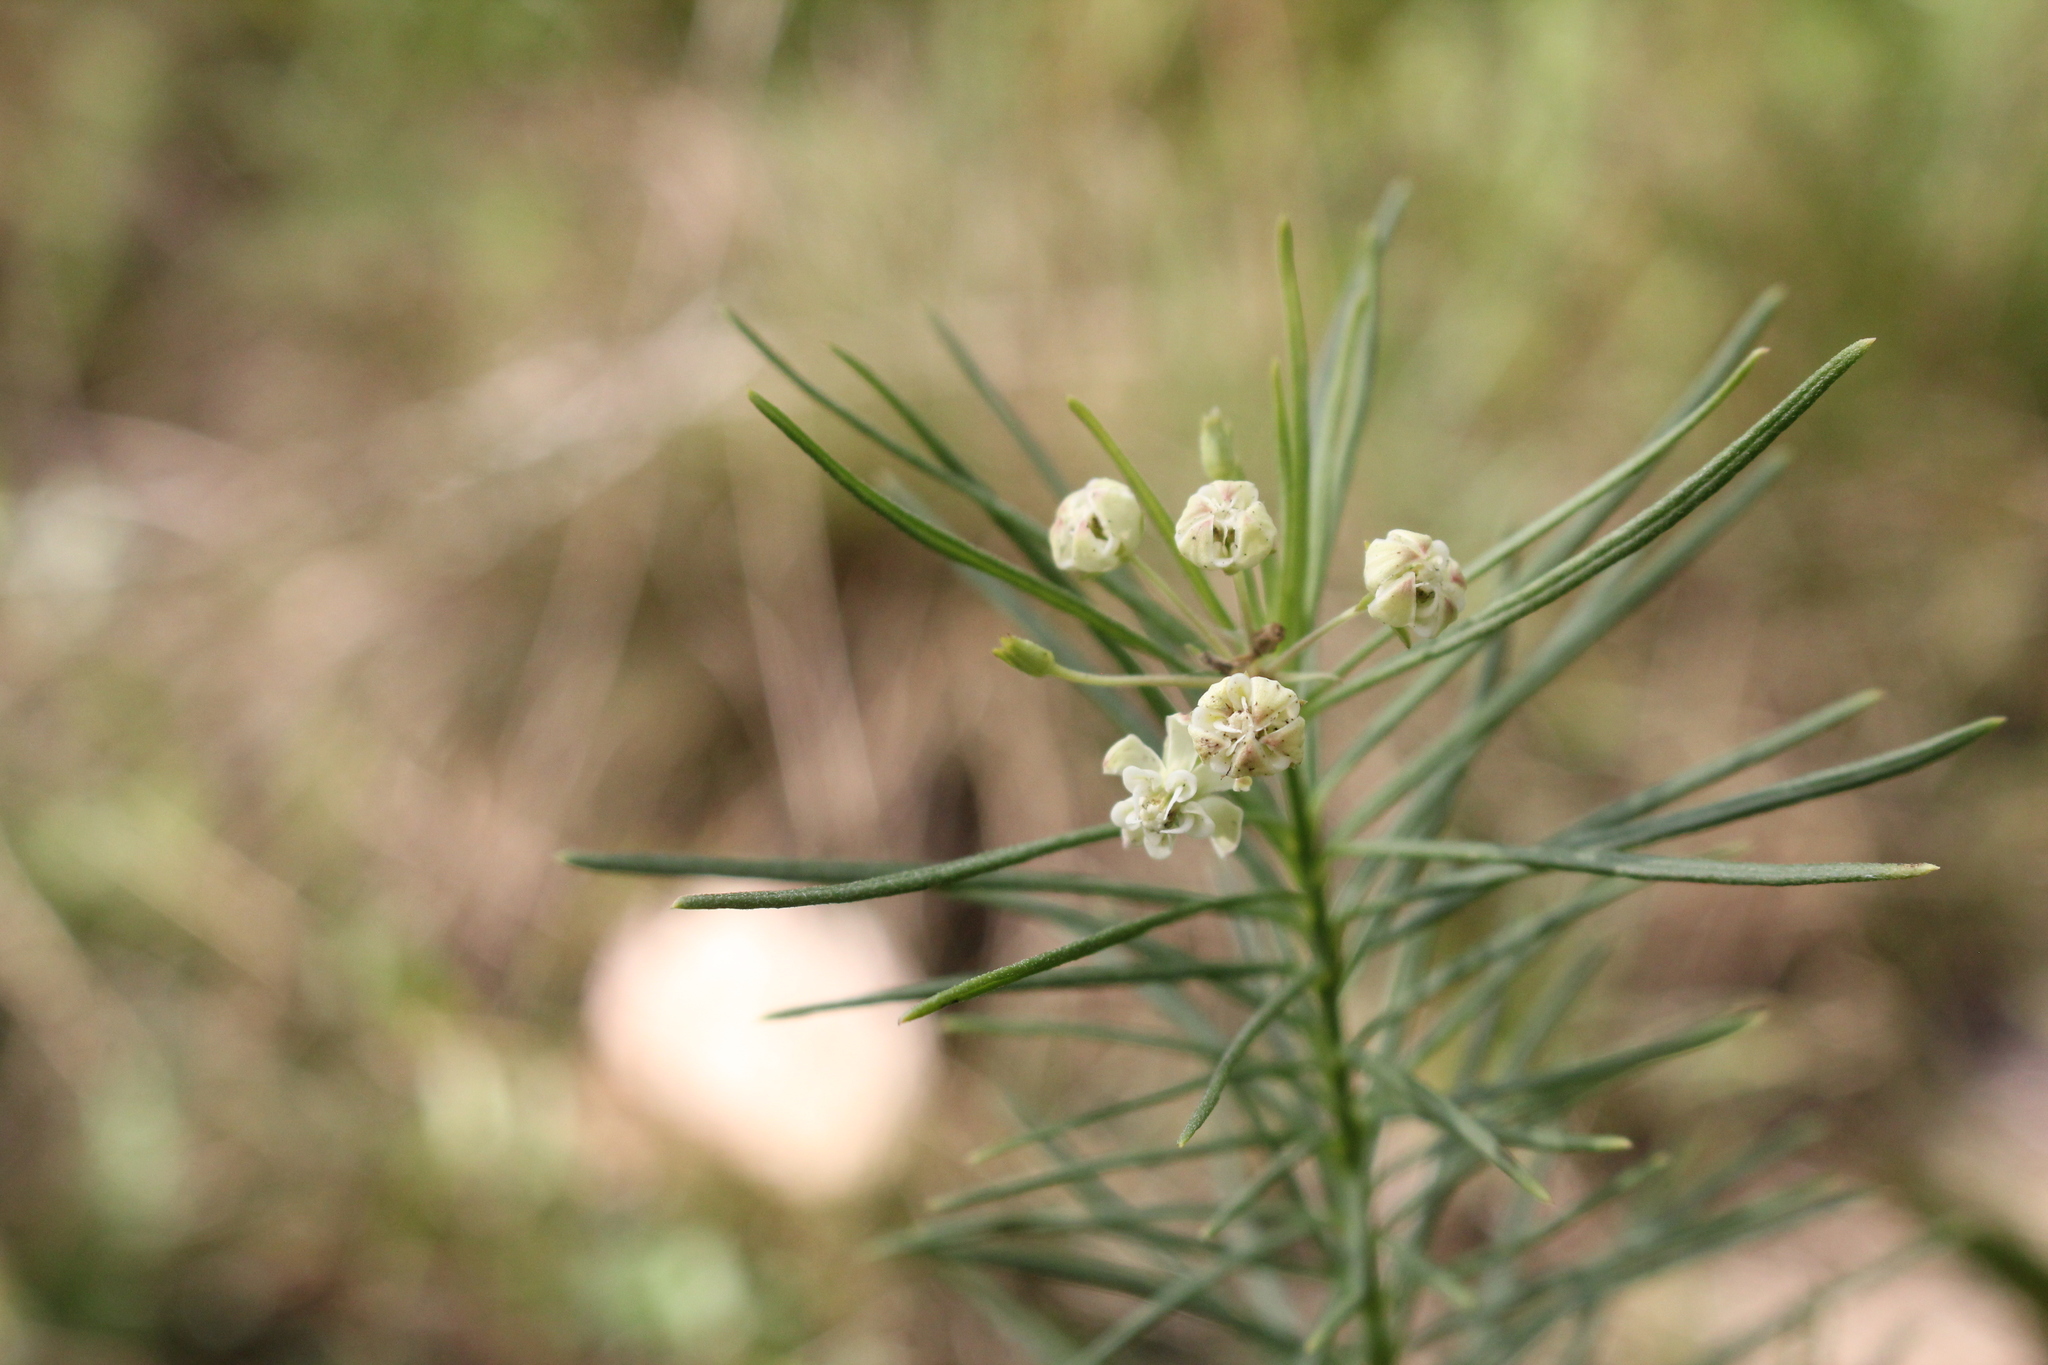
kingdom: Plantae
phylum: Tracheophyta
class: Magnoliopsida
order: Gentianales
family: Apocynaceae
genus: Asclepias
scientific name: Asclepias verticillata
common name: Eastern whorled milkweed
